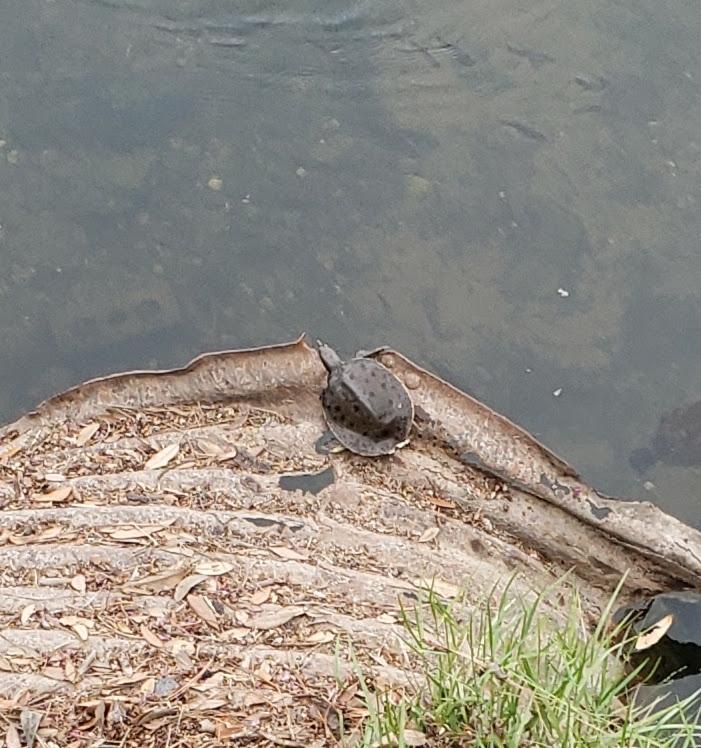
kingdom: Animalia
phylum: Chordata
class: Testudines
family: Trionychidae
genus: Apalone
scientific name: Apalone spinifera
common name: Spiny softshell turtle
